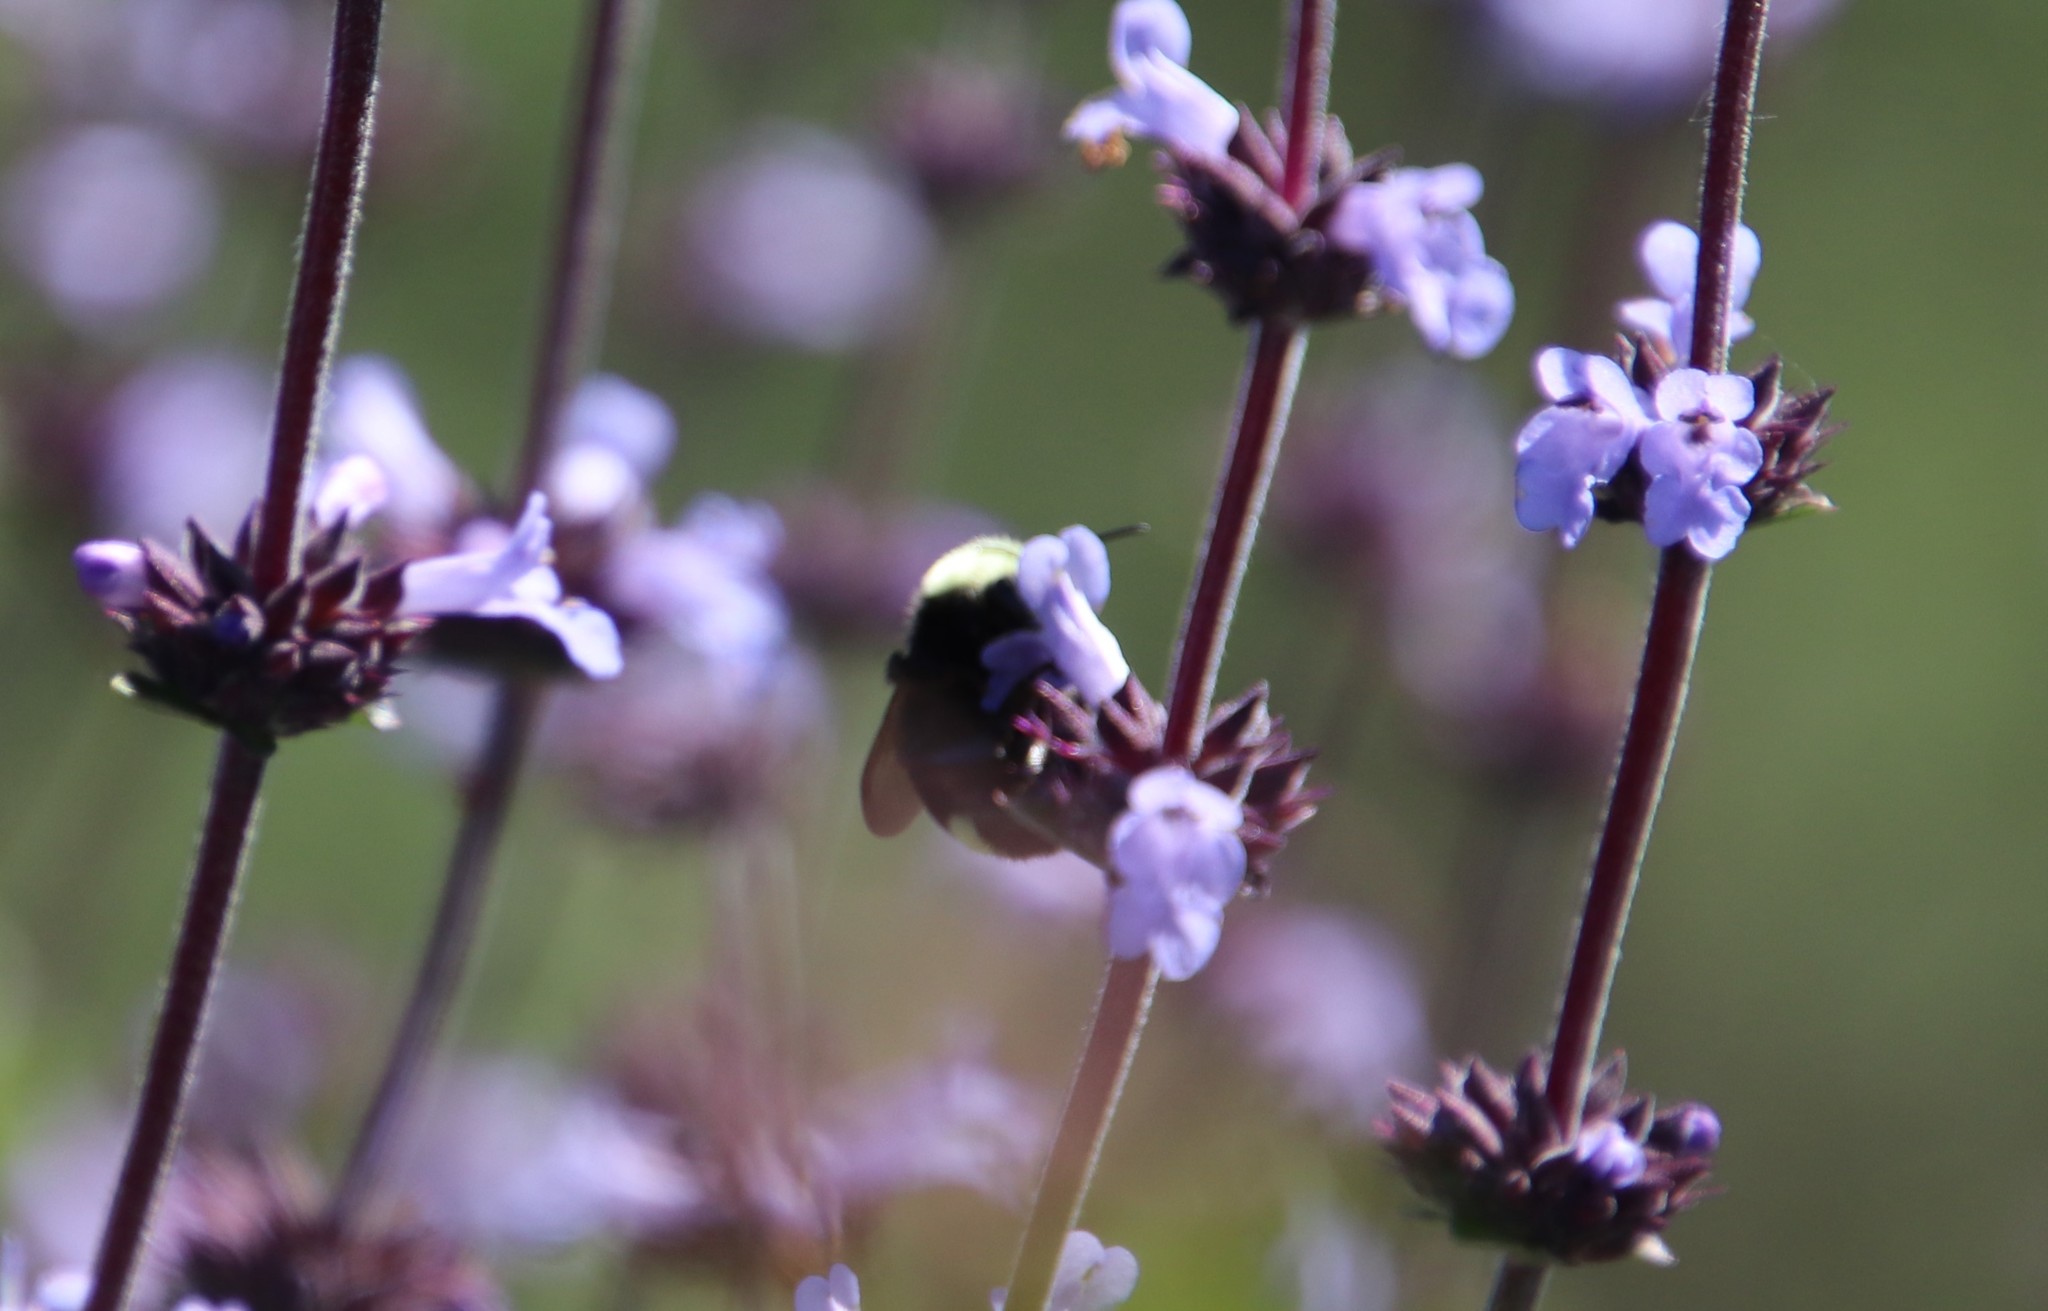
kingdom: Animalia
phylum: Arthropoda
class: Insecta
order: Hymenoptera
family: Apidae
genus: Bombus
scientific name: Bombus vosnesenskii
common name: Vosnesensky bumble bee
